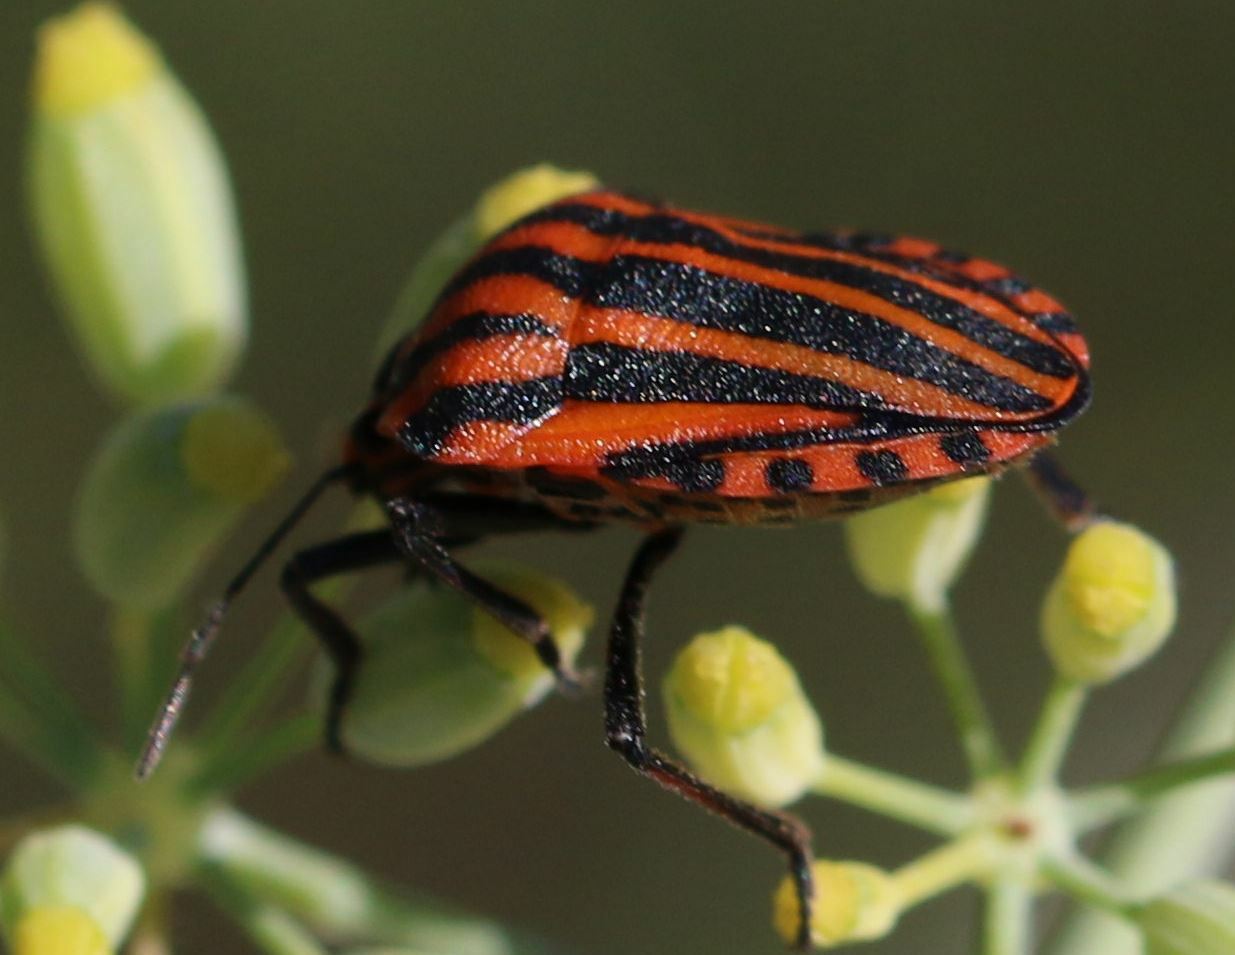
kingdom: Animalia
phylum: Arthropoda
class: Insecta
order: Hemiptera
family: Pentatomidae
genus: Graphosoma
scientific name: Graphosoma italicum
